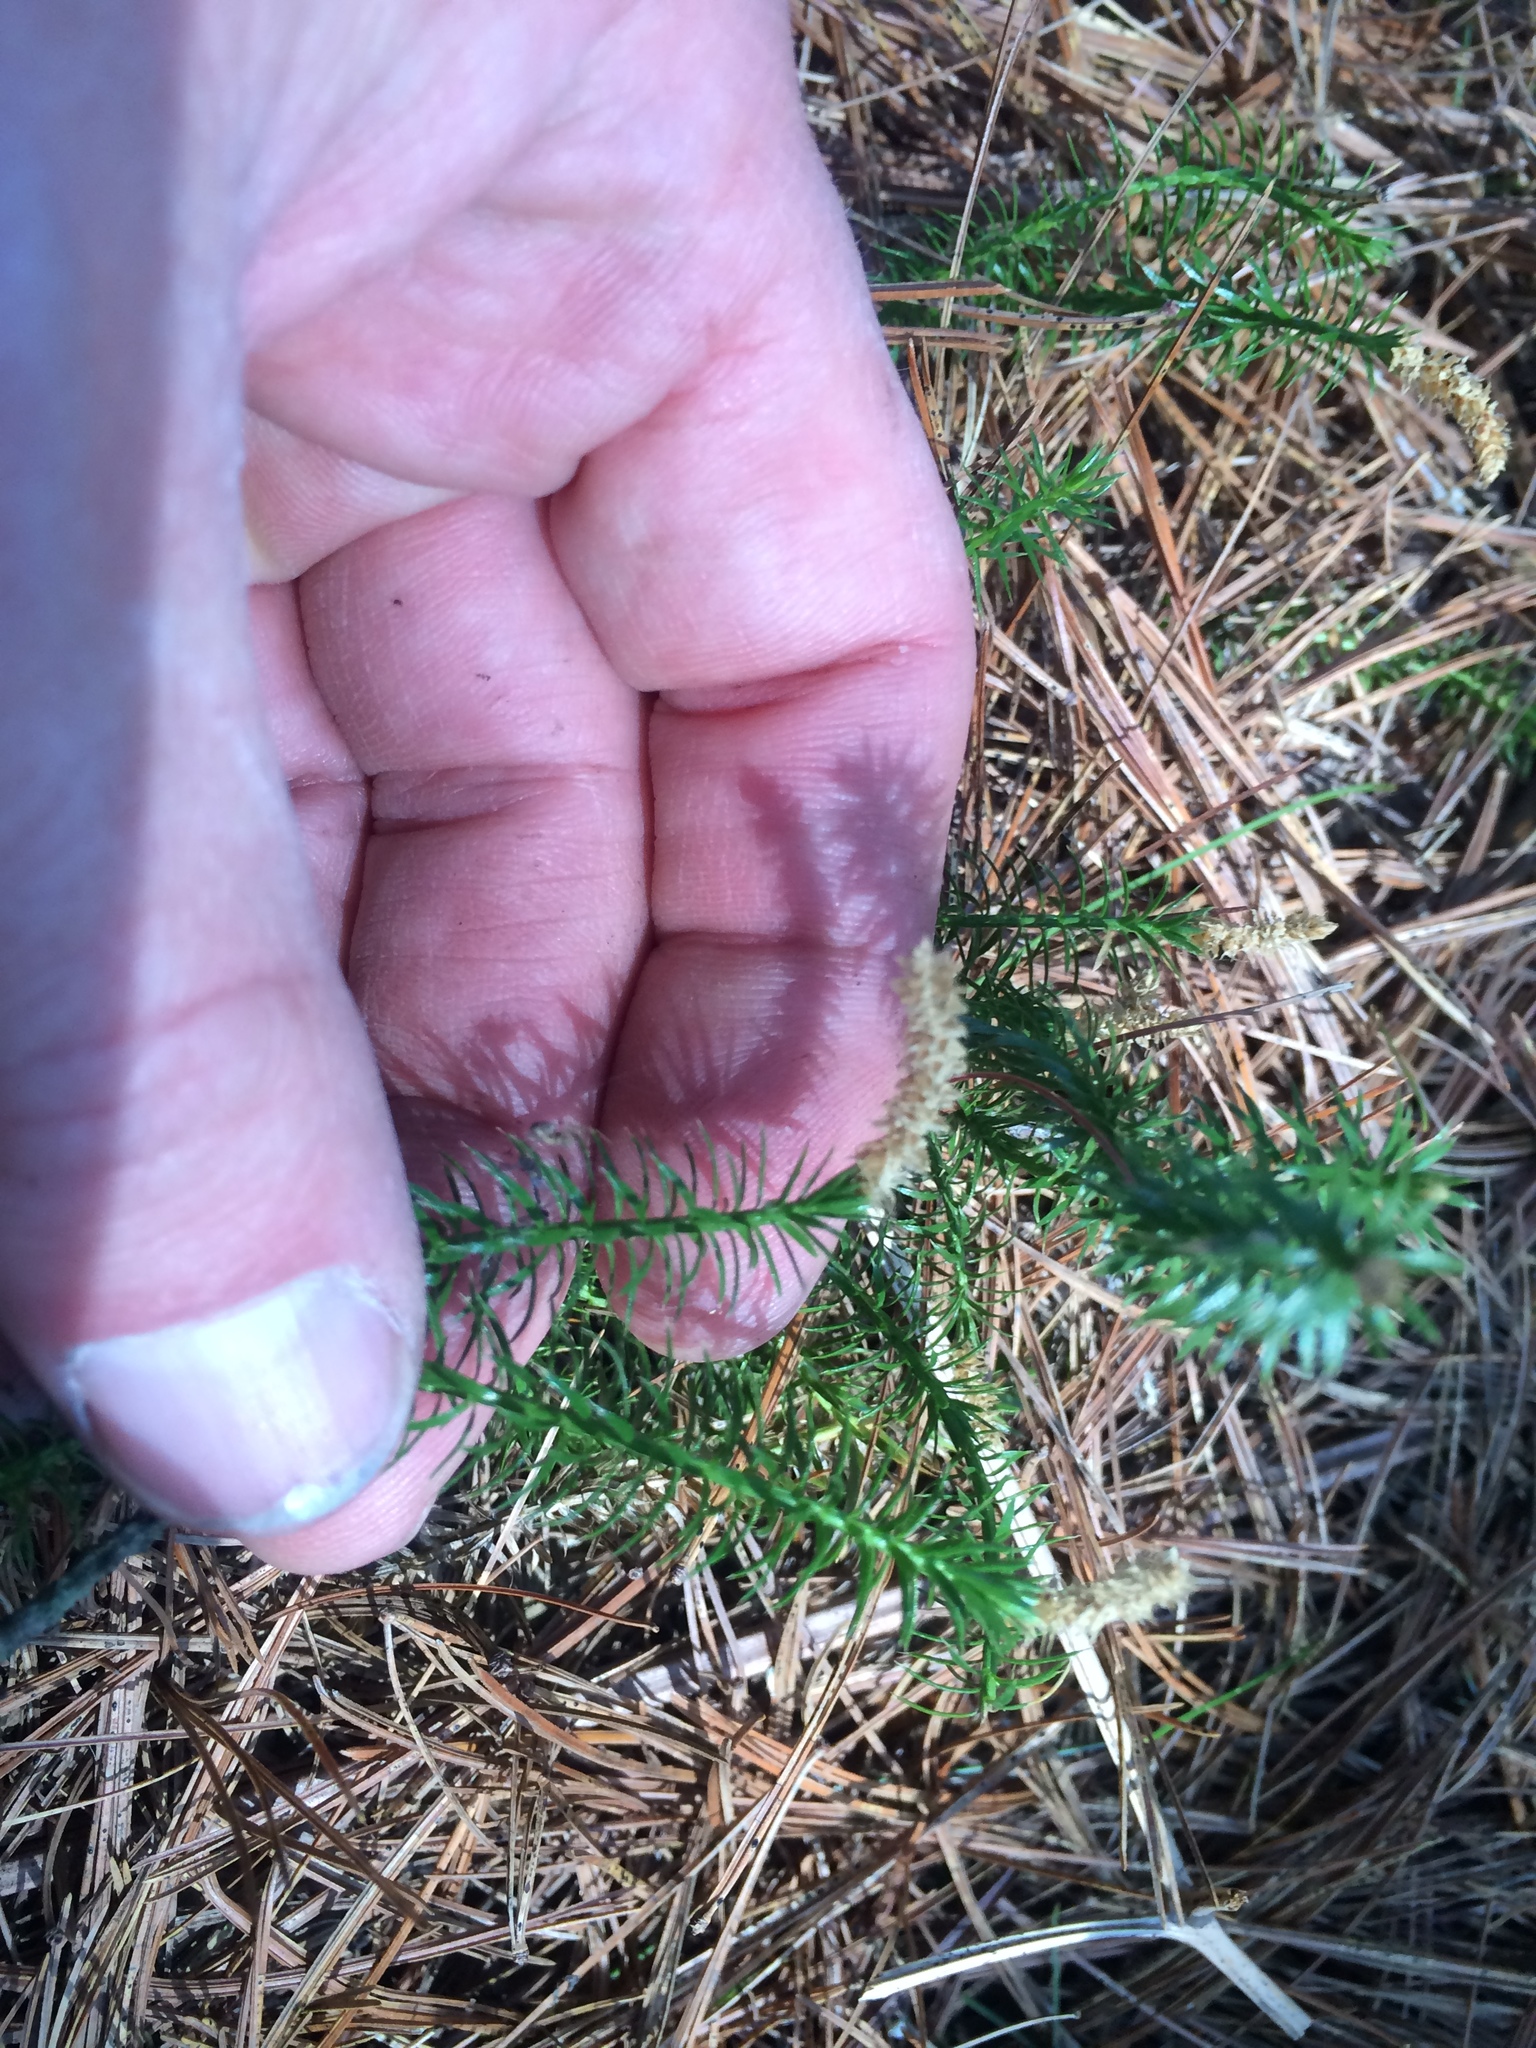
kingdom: Plantae
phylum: Tracheophyta
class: Lycopodiopsida
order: Lycopodiales
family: Lycopodiaceae
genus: Spinulum
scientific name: Spinulum annotinum
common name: Interrupted club-moss
